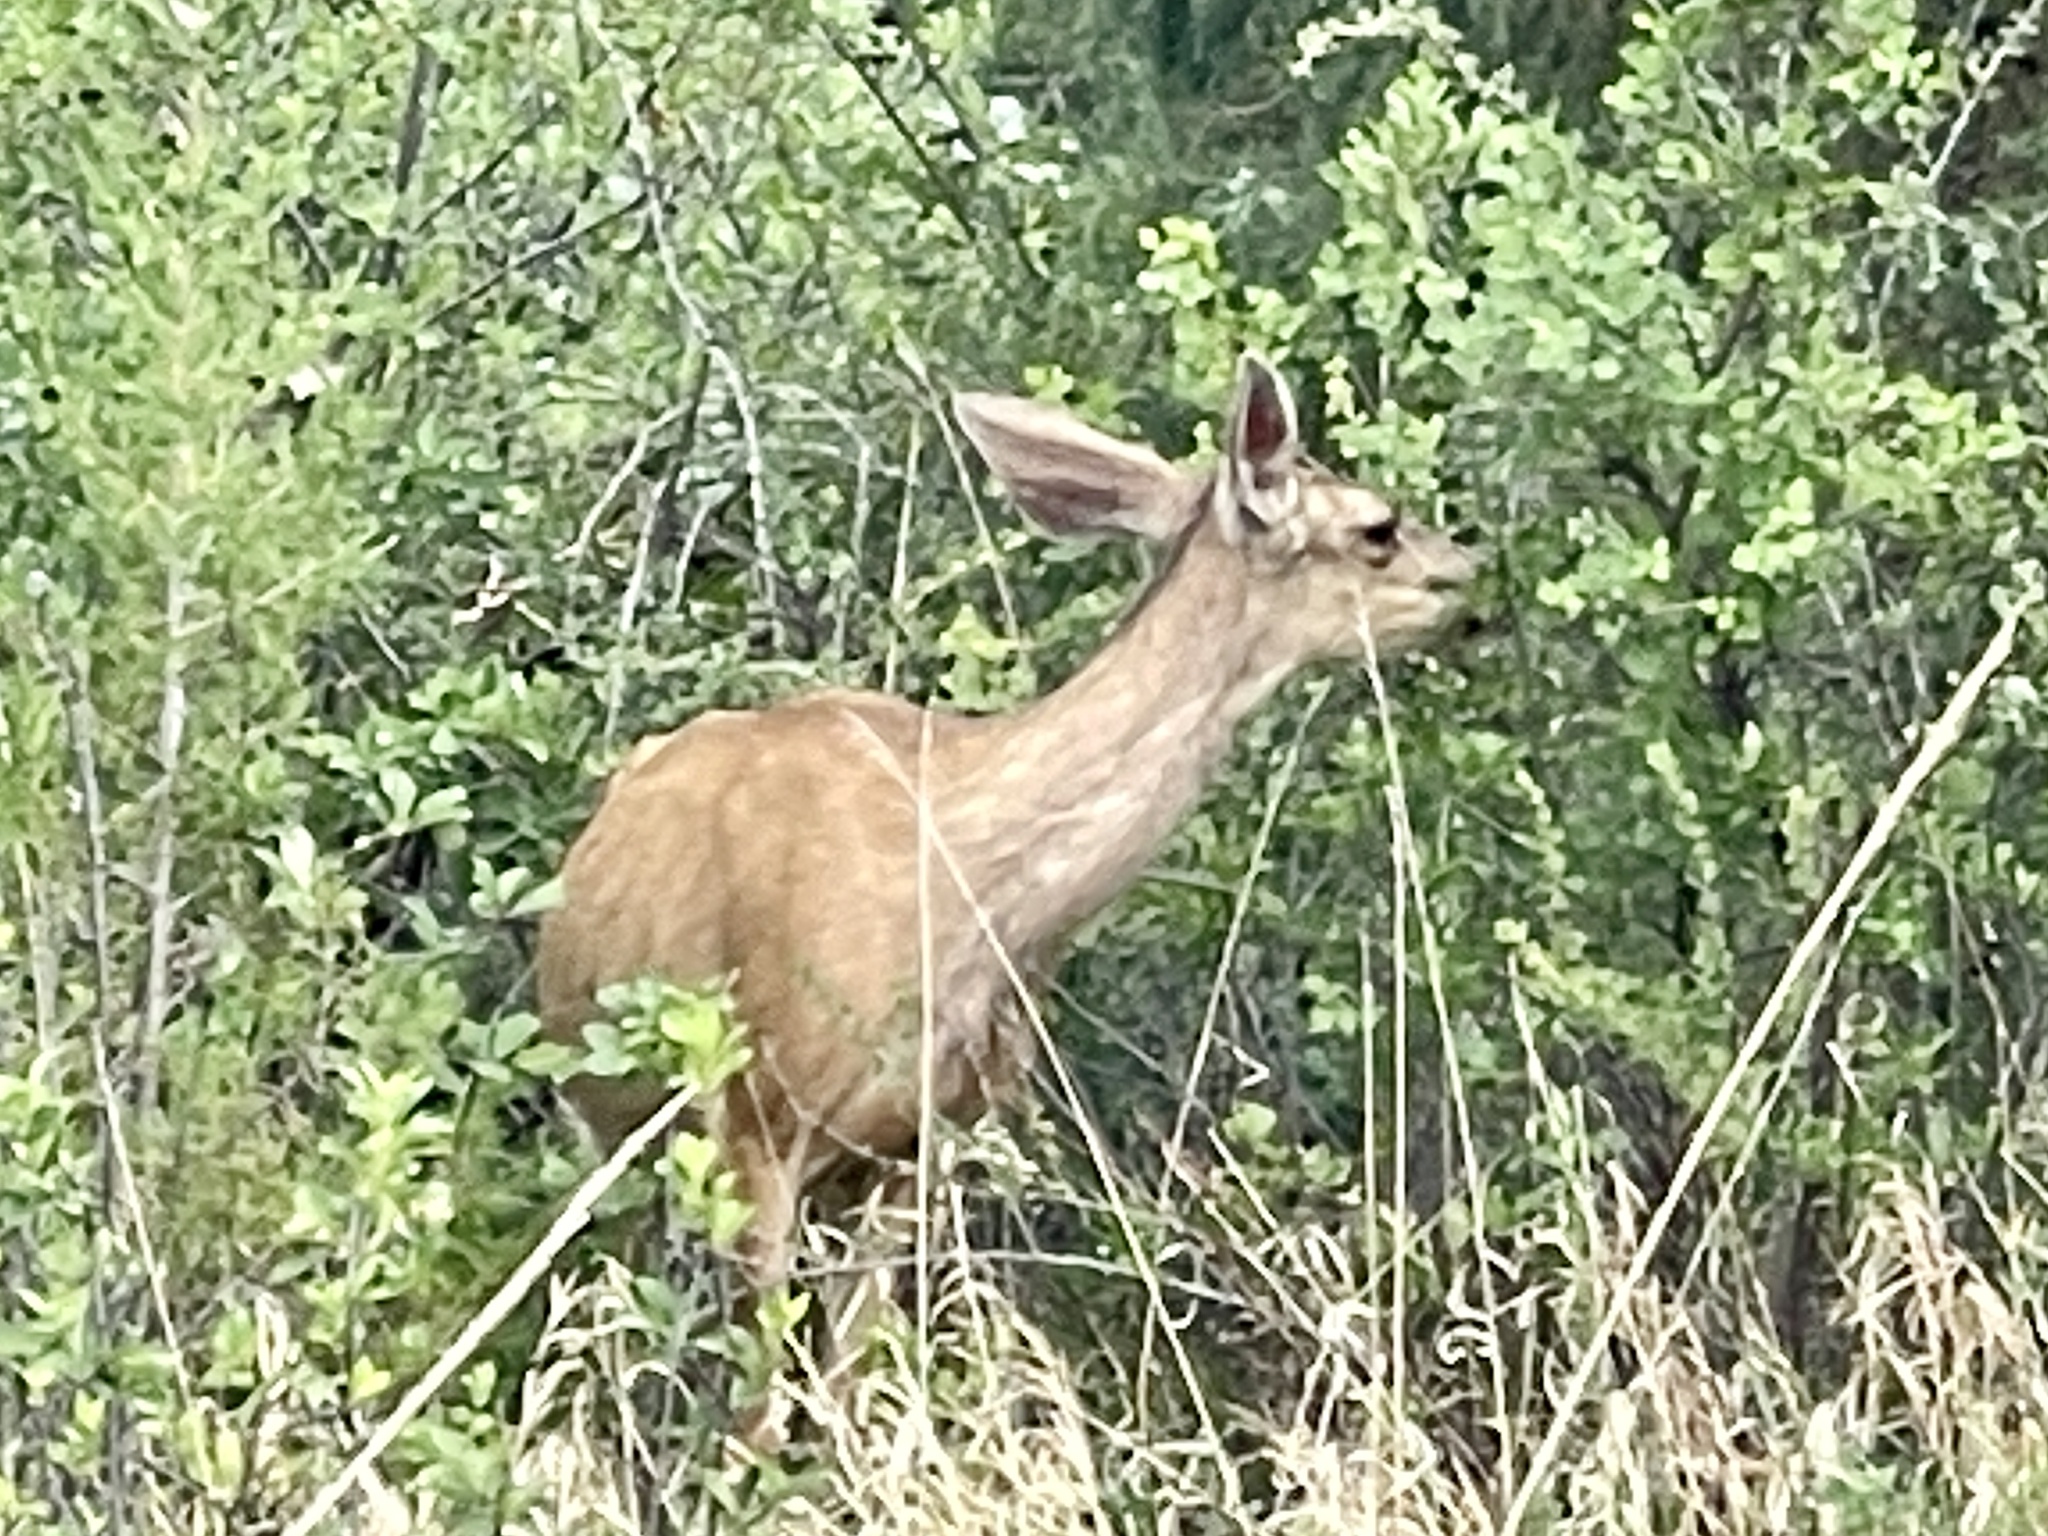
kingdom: Animalia
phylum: Chordata
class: Mammalia
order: Artiodactyla
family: Cervidae
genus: Odocoileus
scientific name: Odocoileus hemionus
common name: Mule deer
